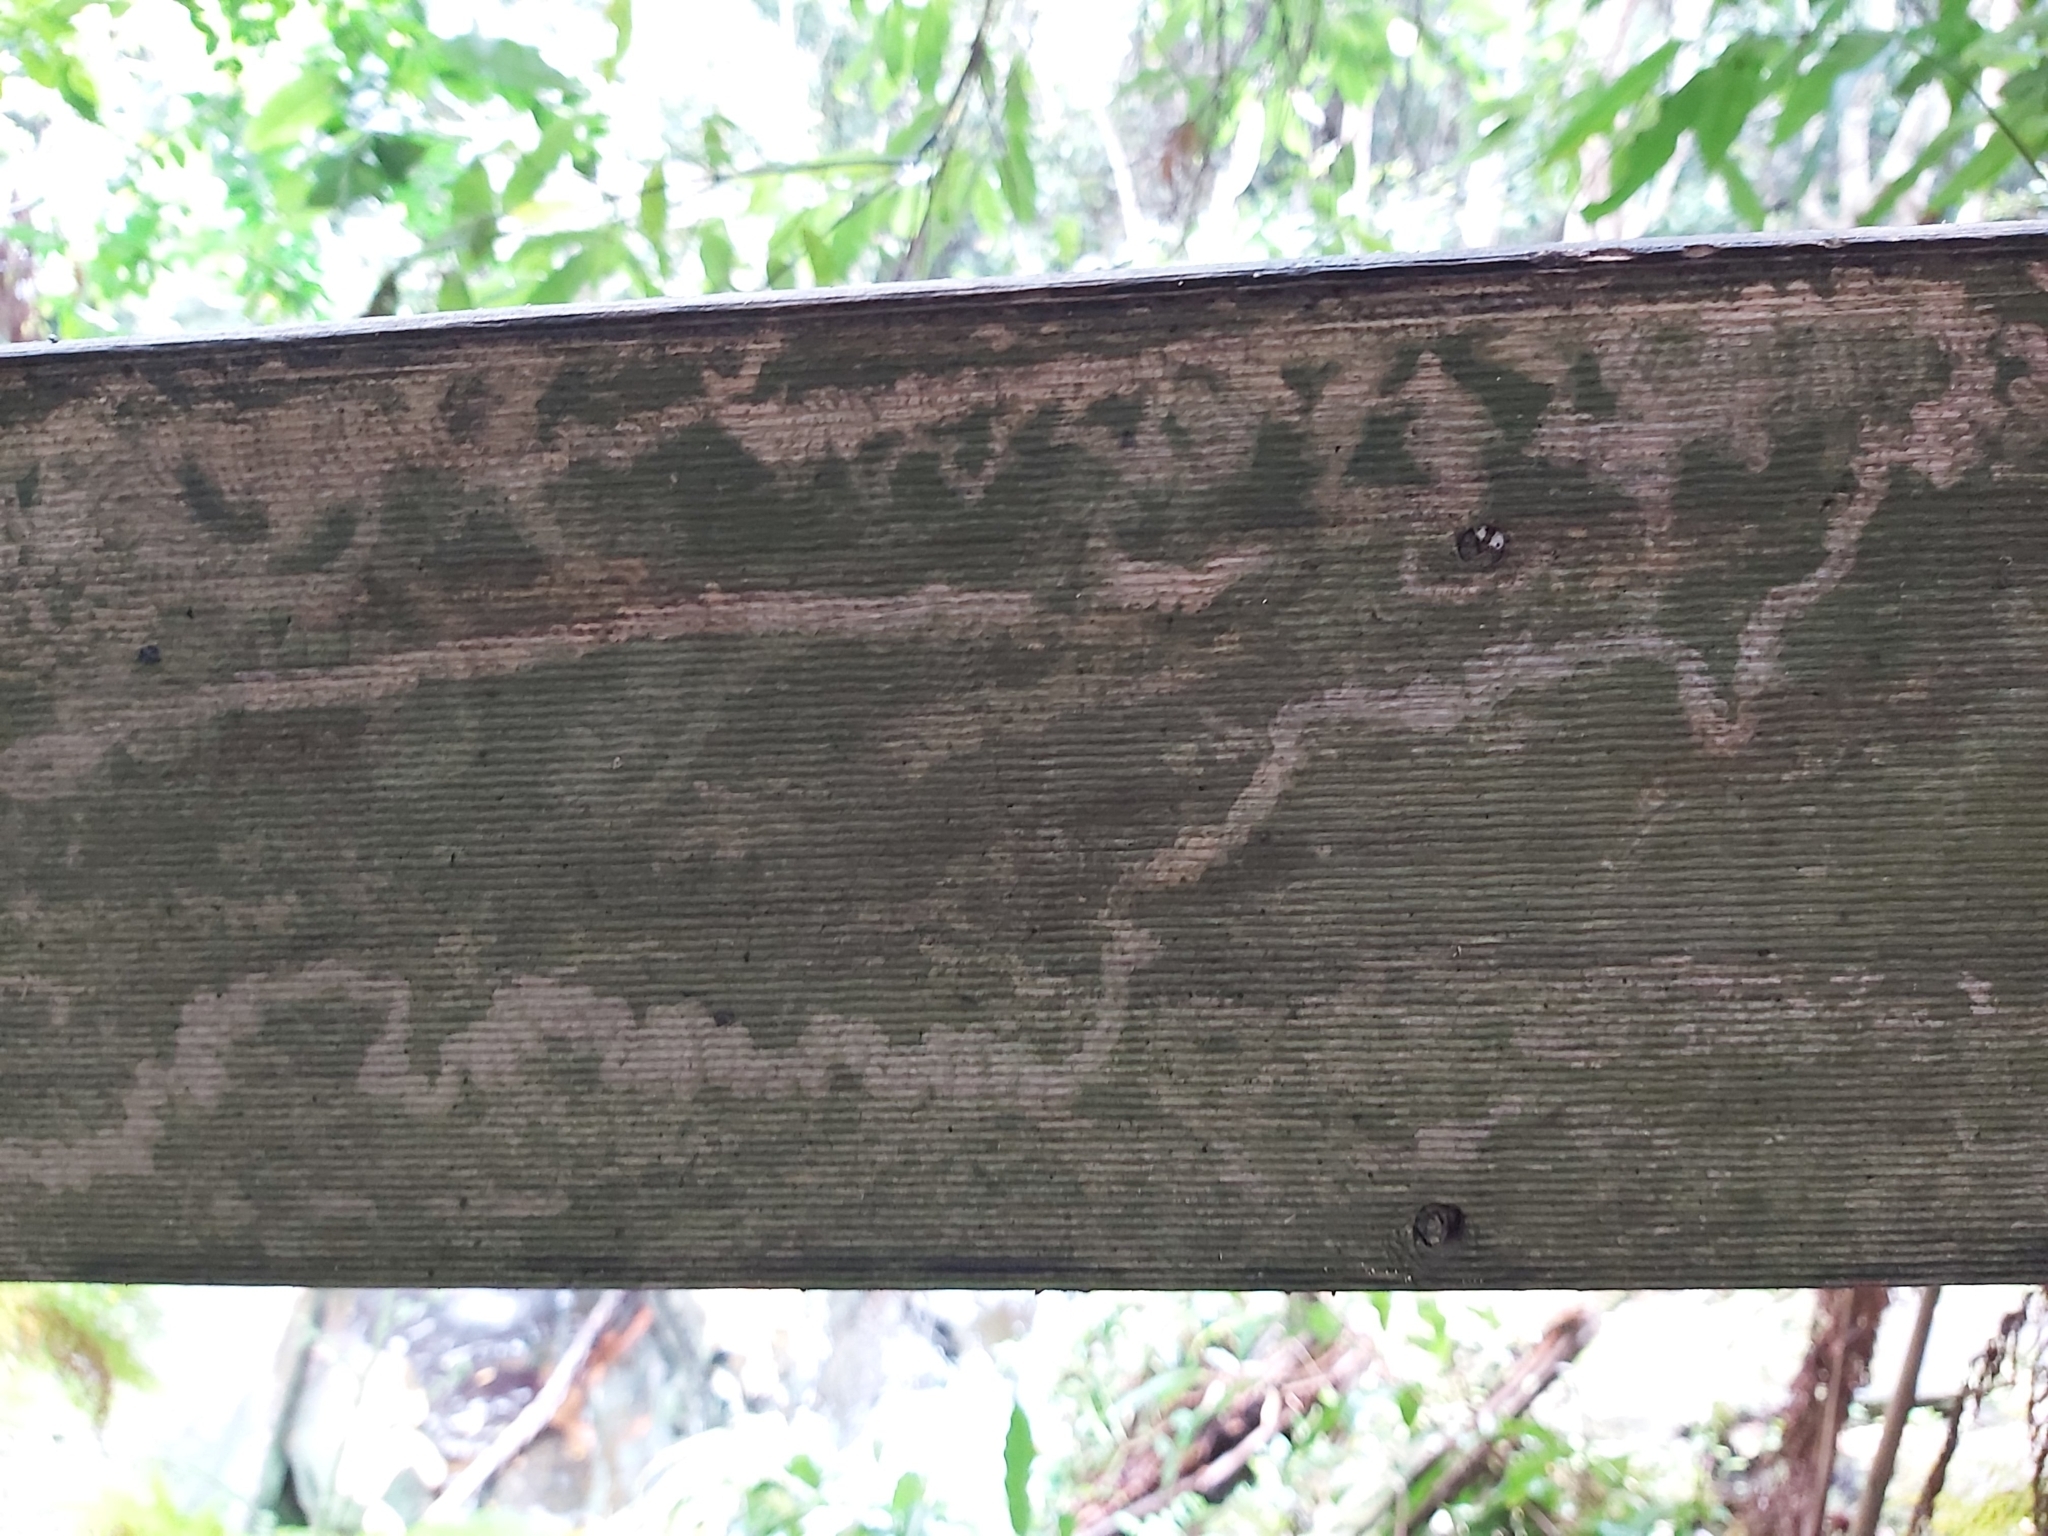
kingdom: Animalia
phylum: Mollusca
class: Gastropoda
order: Stylommatophora
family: Athoracophoridae
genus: Triboniophorus
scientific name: Triboniophorus graeffei
